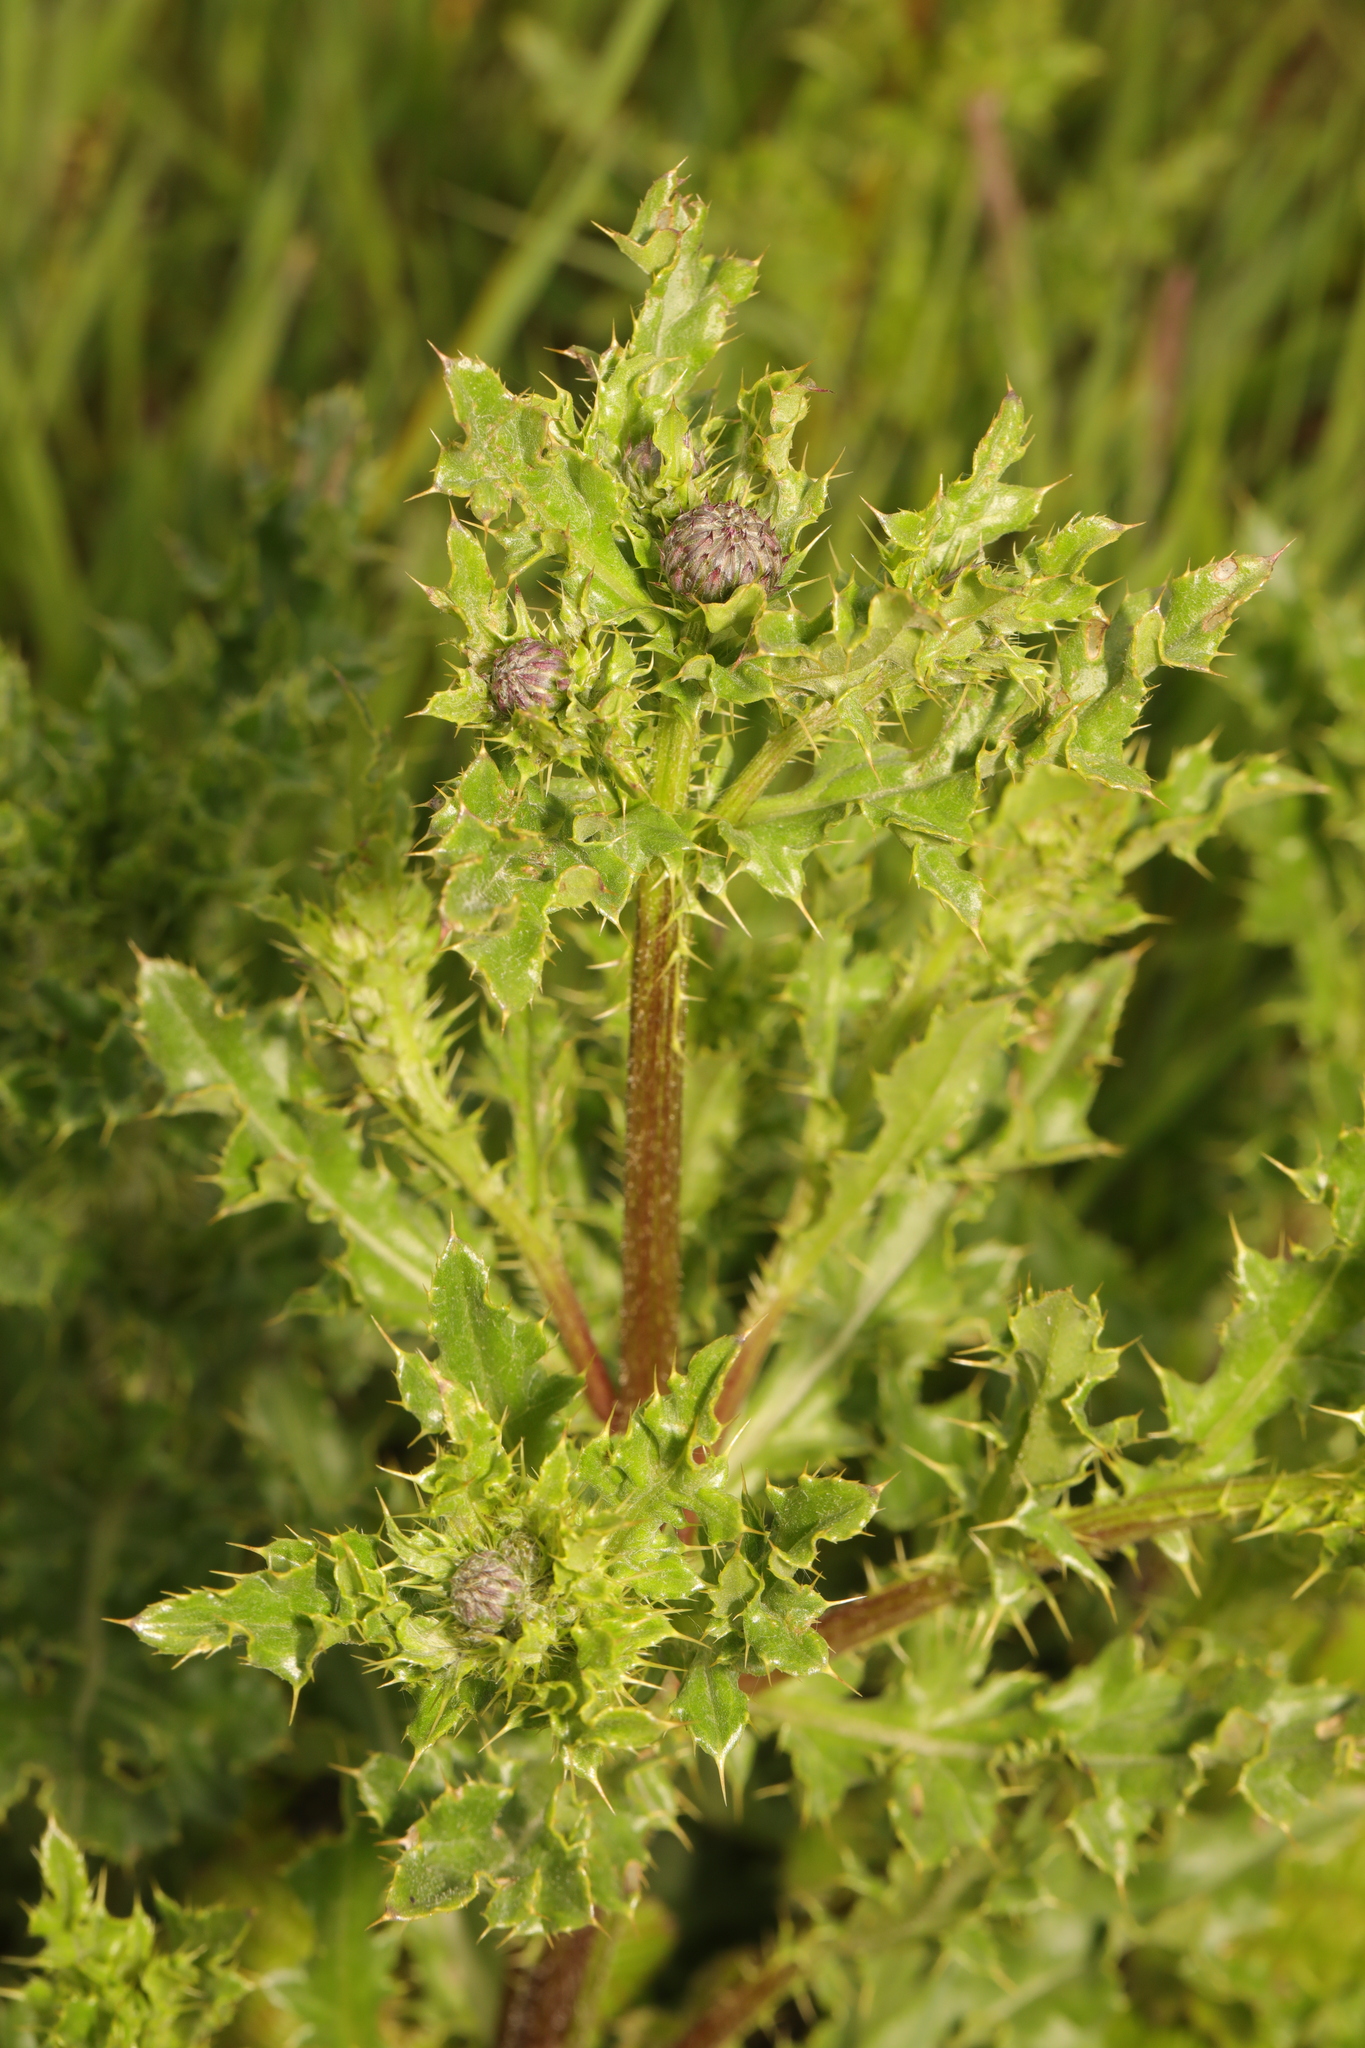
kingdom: Plantae
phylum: Tracheophyta
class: Magnoliopsida
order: Asterales
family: Asteraceae
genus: Cirsium
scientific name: Cirsium arvense
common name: Creeping thistle
